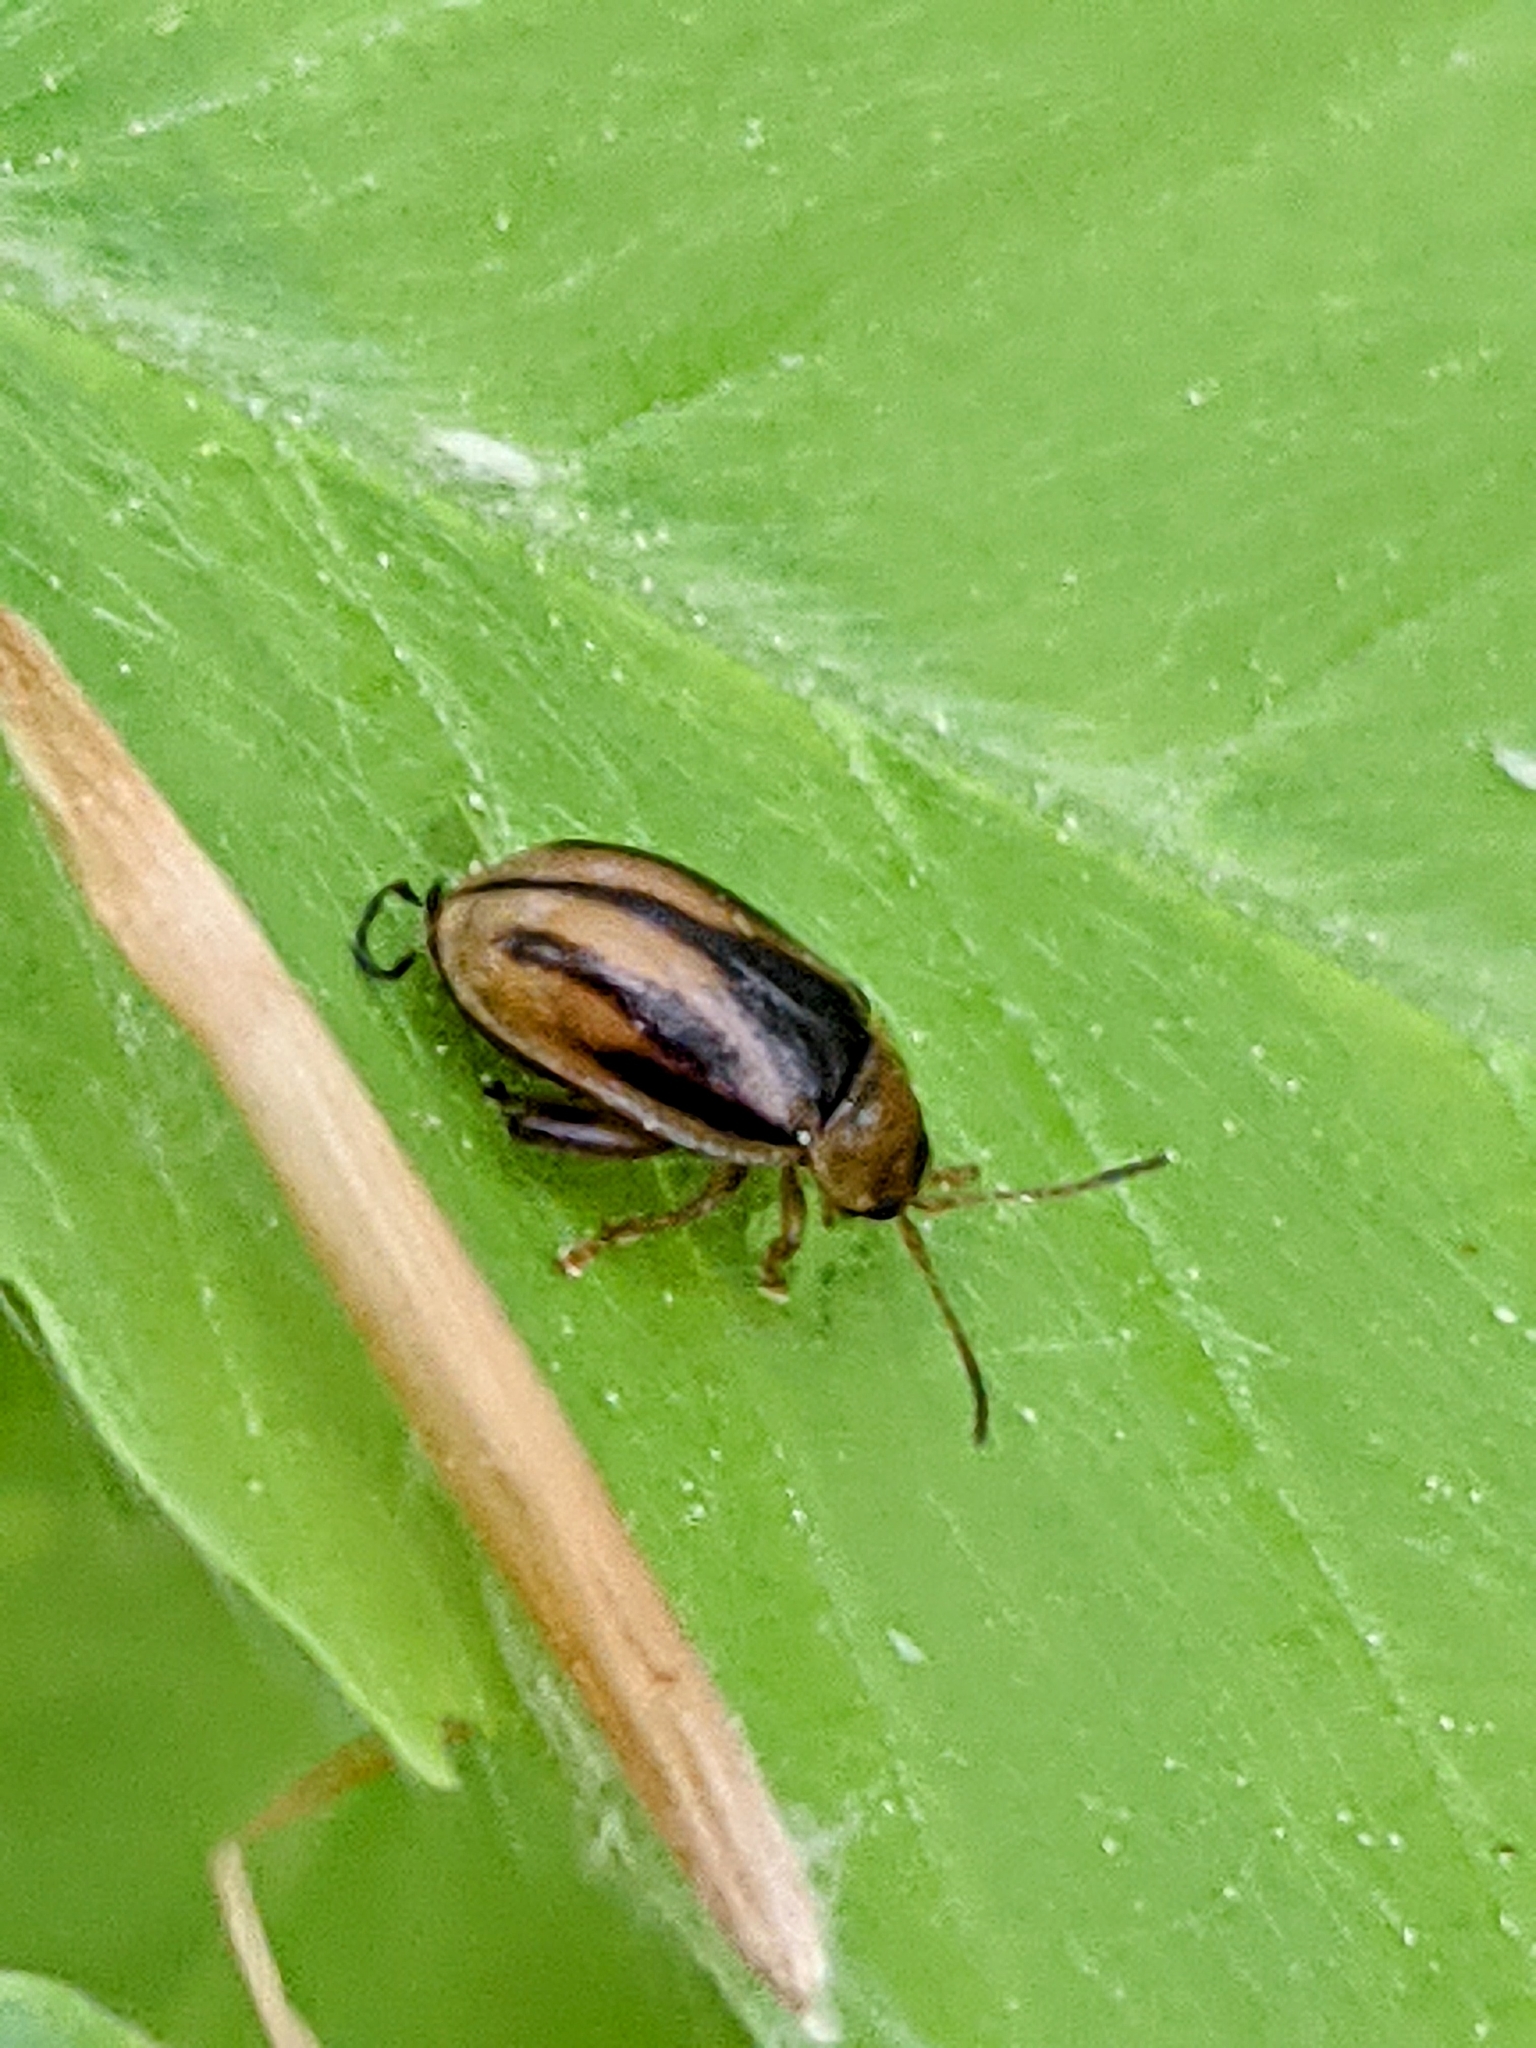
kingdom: Animalia
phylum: Arthropoda
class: Insecta
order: Coleoptera
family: Chrysomelidae
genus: Capraita
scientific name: Capraita subvittata
